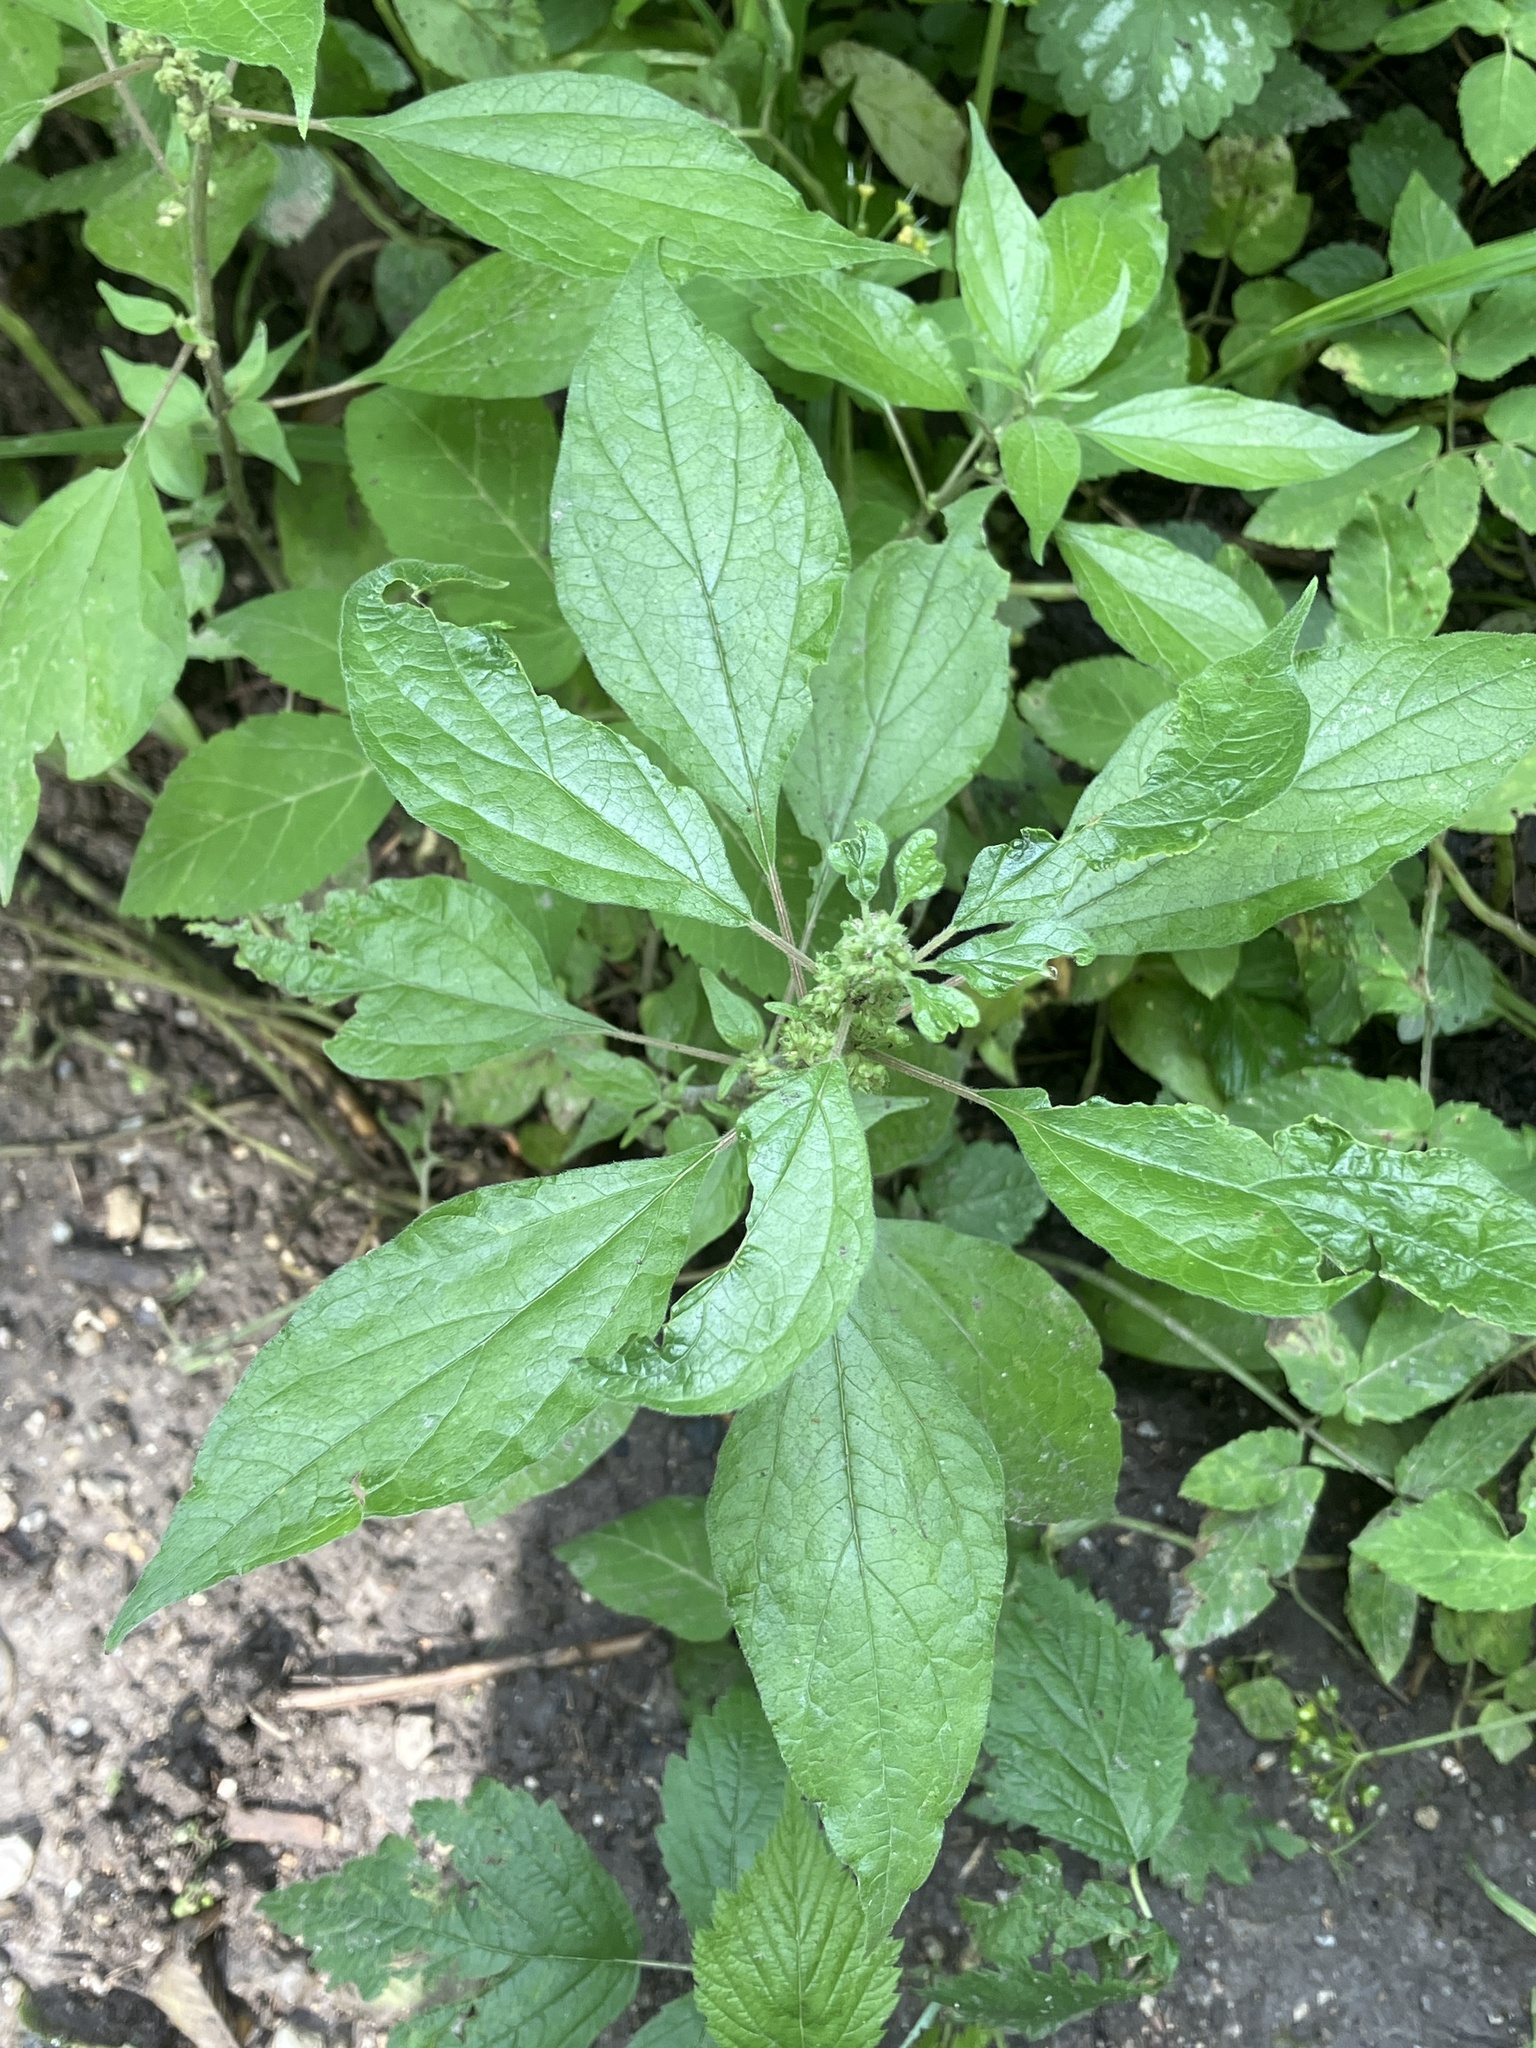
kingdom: Plantae
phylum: Tracheophyta
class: Magnoliopsida
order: Rosales
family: Urticaceae
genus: Parietaria
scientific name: Parietaria officinalis
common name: Eastern pellitory-of-the-wall
